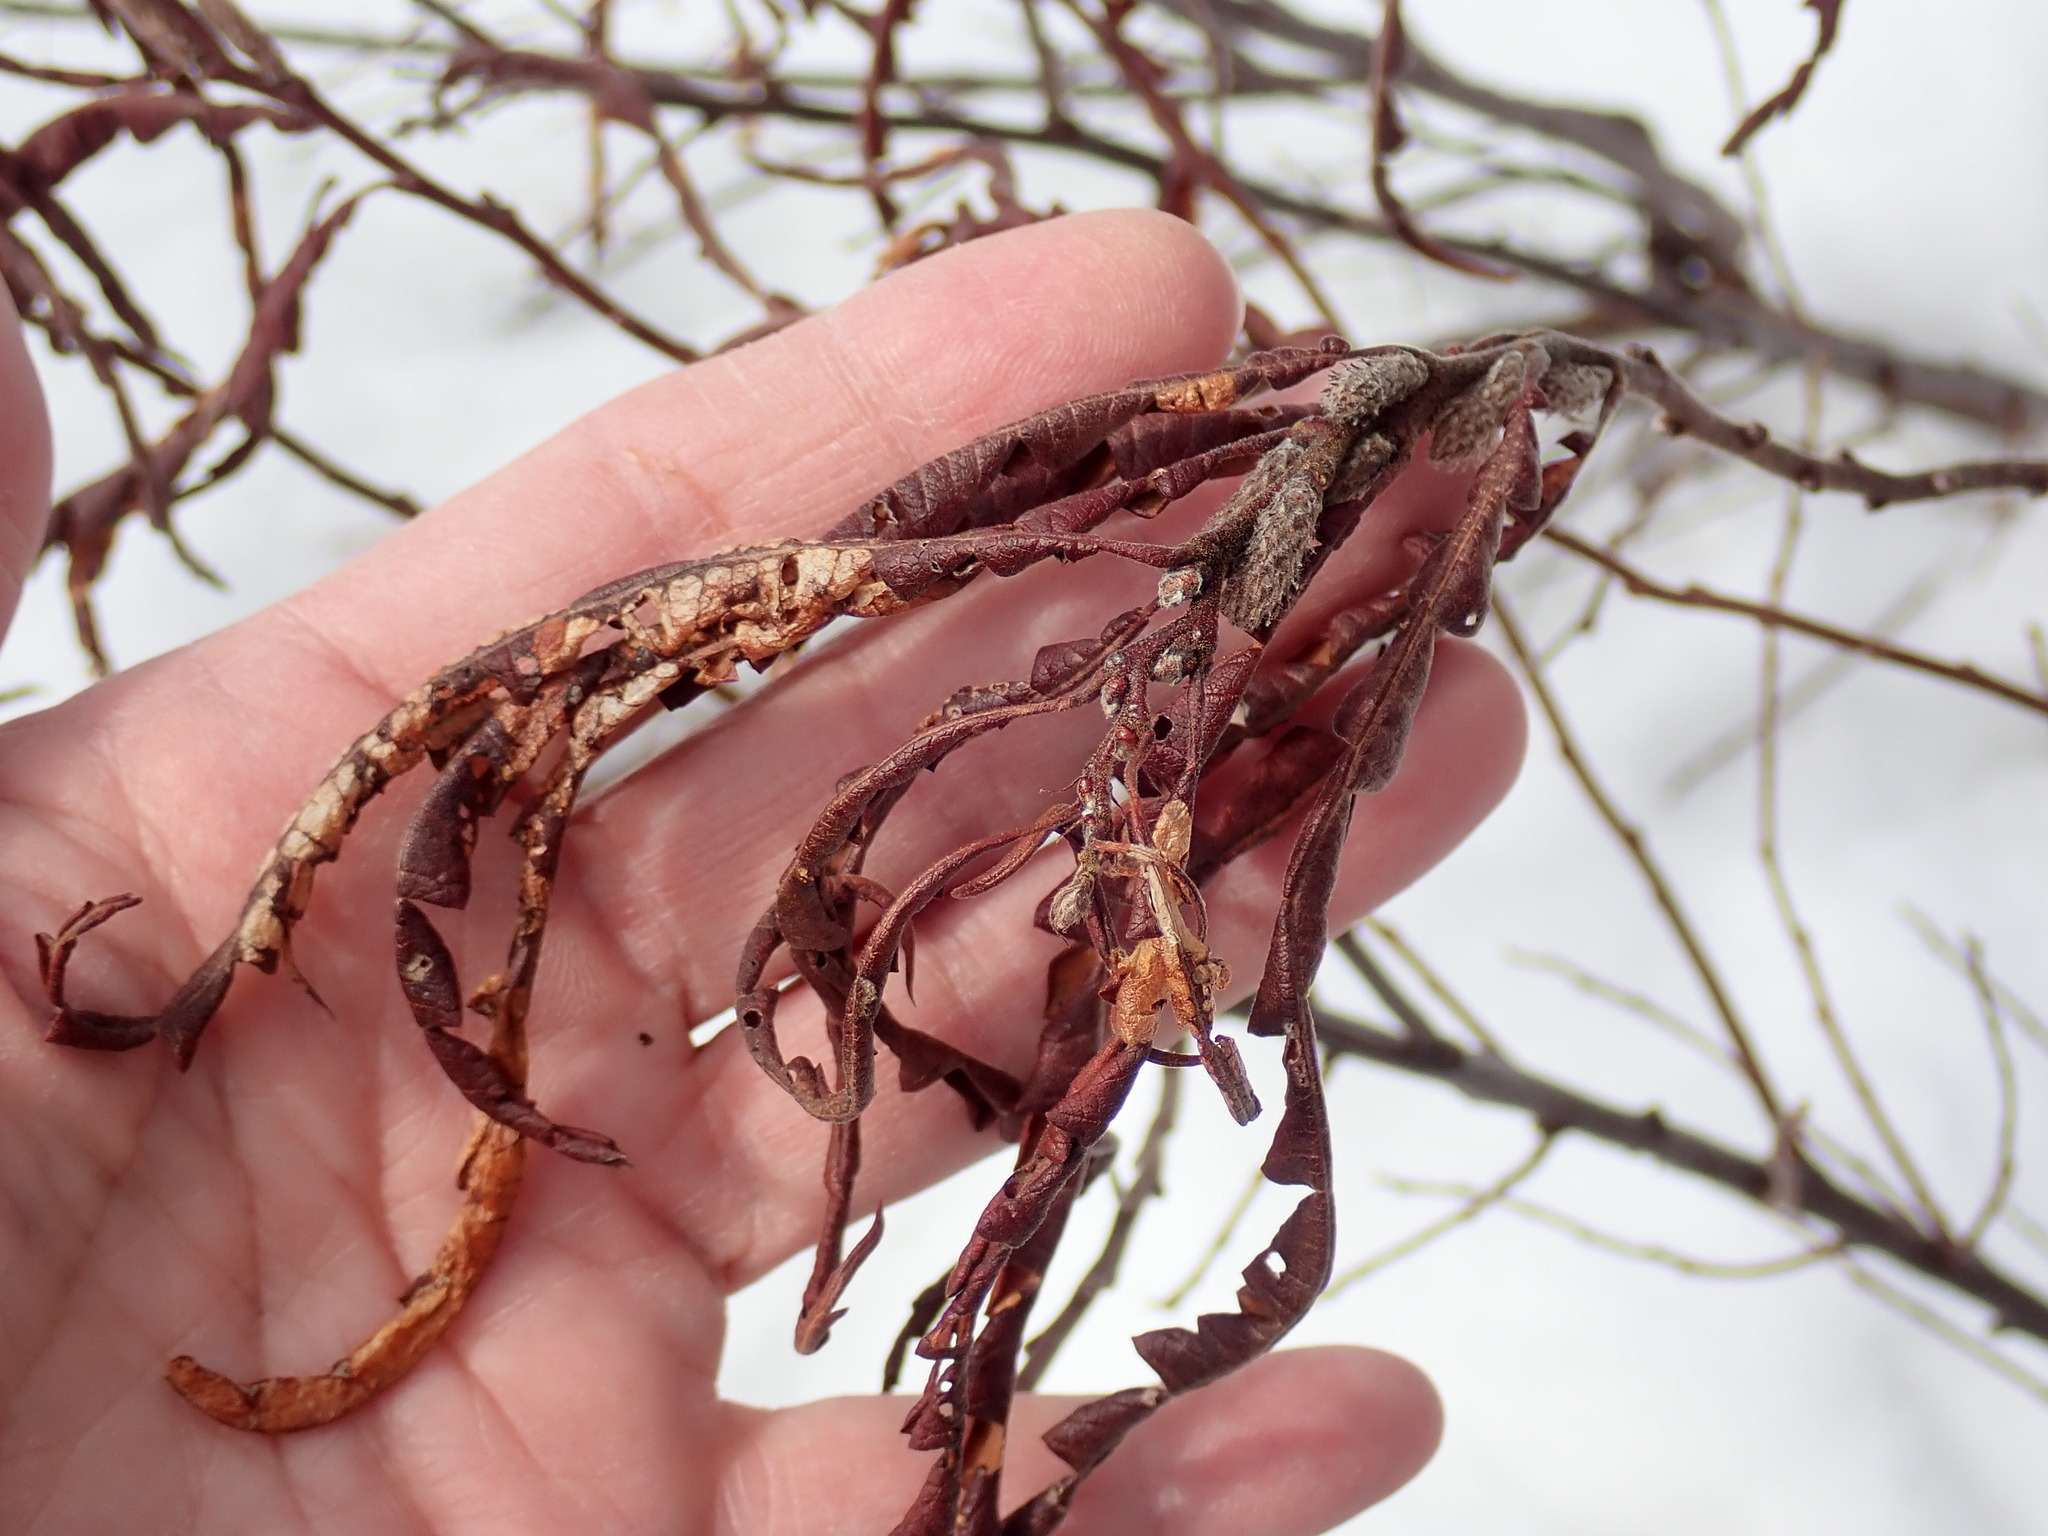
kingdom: Plantae
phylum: Tracheophyta
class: Magnoliopsida
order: Fagales
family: Myricaceae
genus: Comptonia
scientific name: Comptonia peregrina
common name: Sweet-fern
